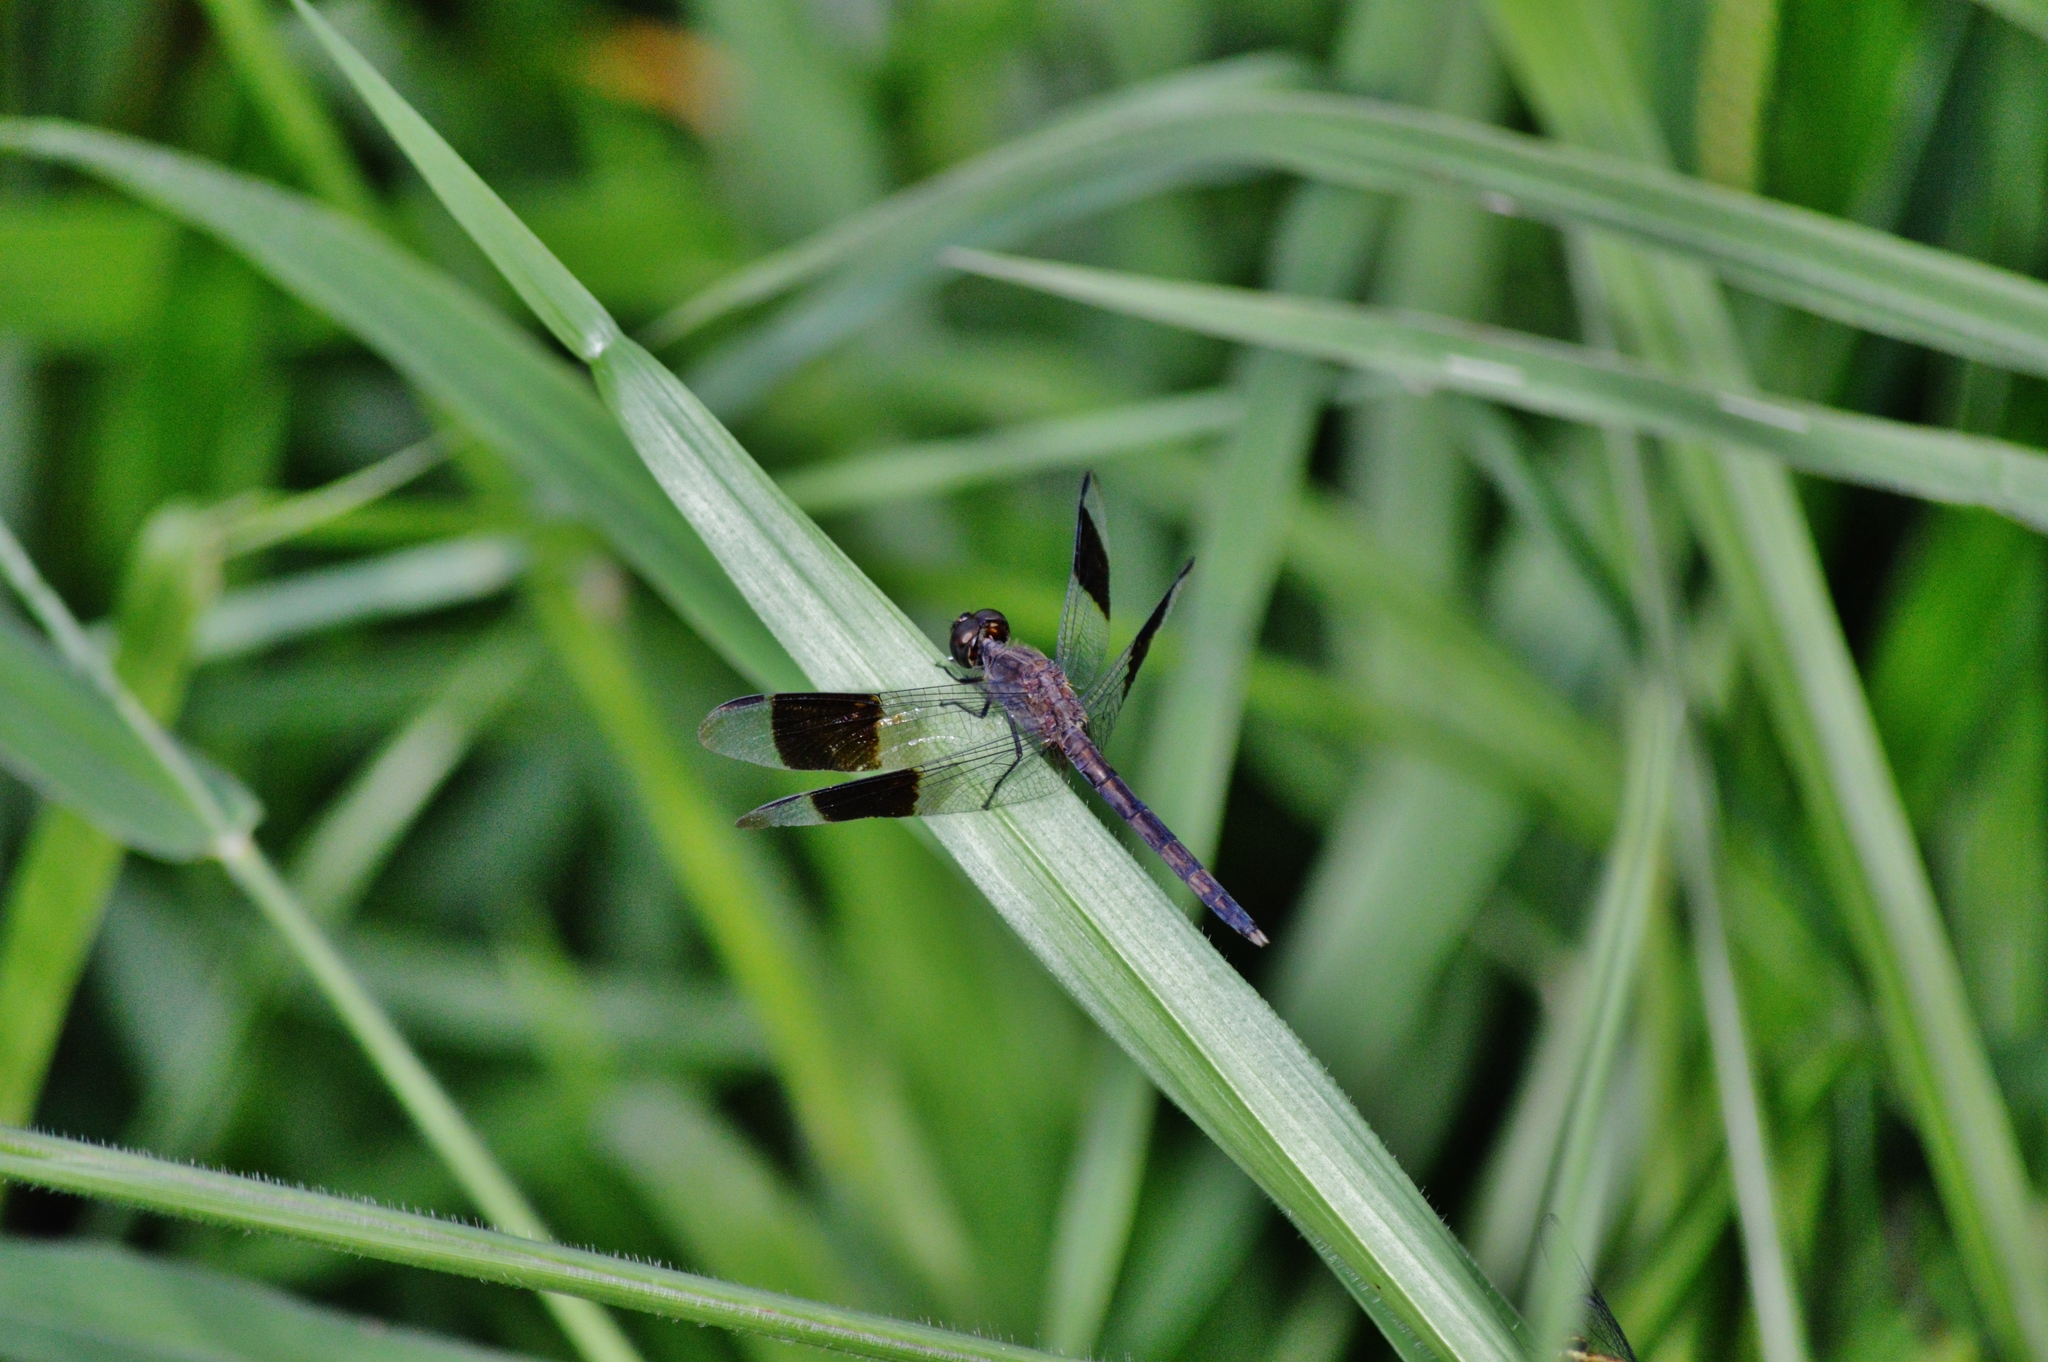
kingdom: Animalia
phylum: Arthropoda
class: Insecta
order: Odonata
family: Libellulidae
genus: Erythrodiplax
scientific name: Erythrodiplax umbrata
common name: Band-winged dragonlet
